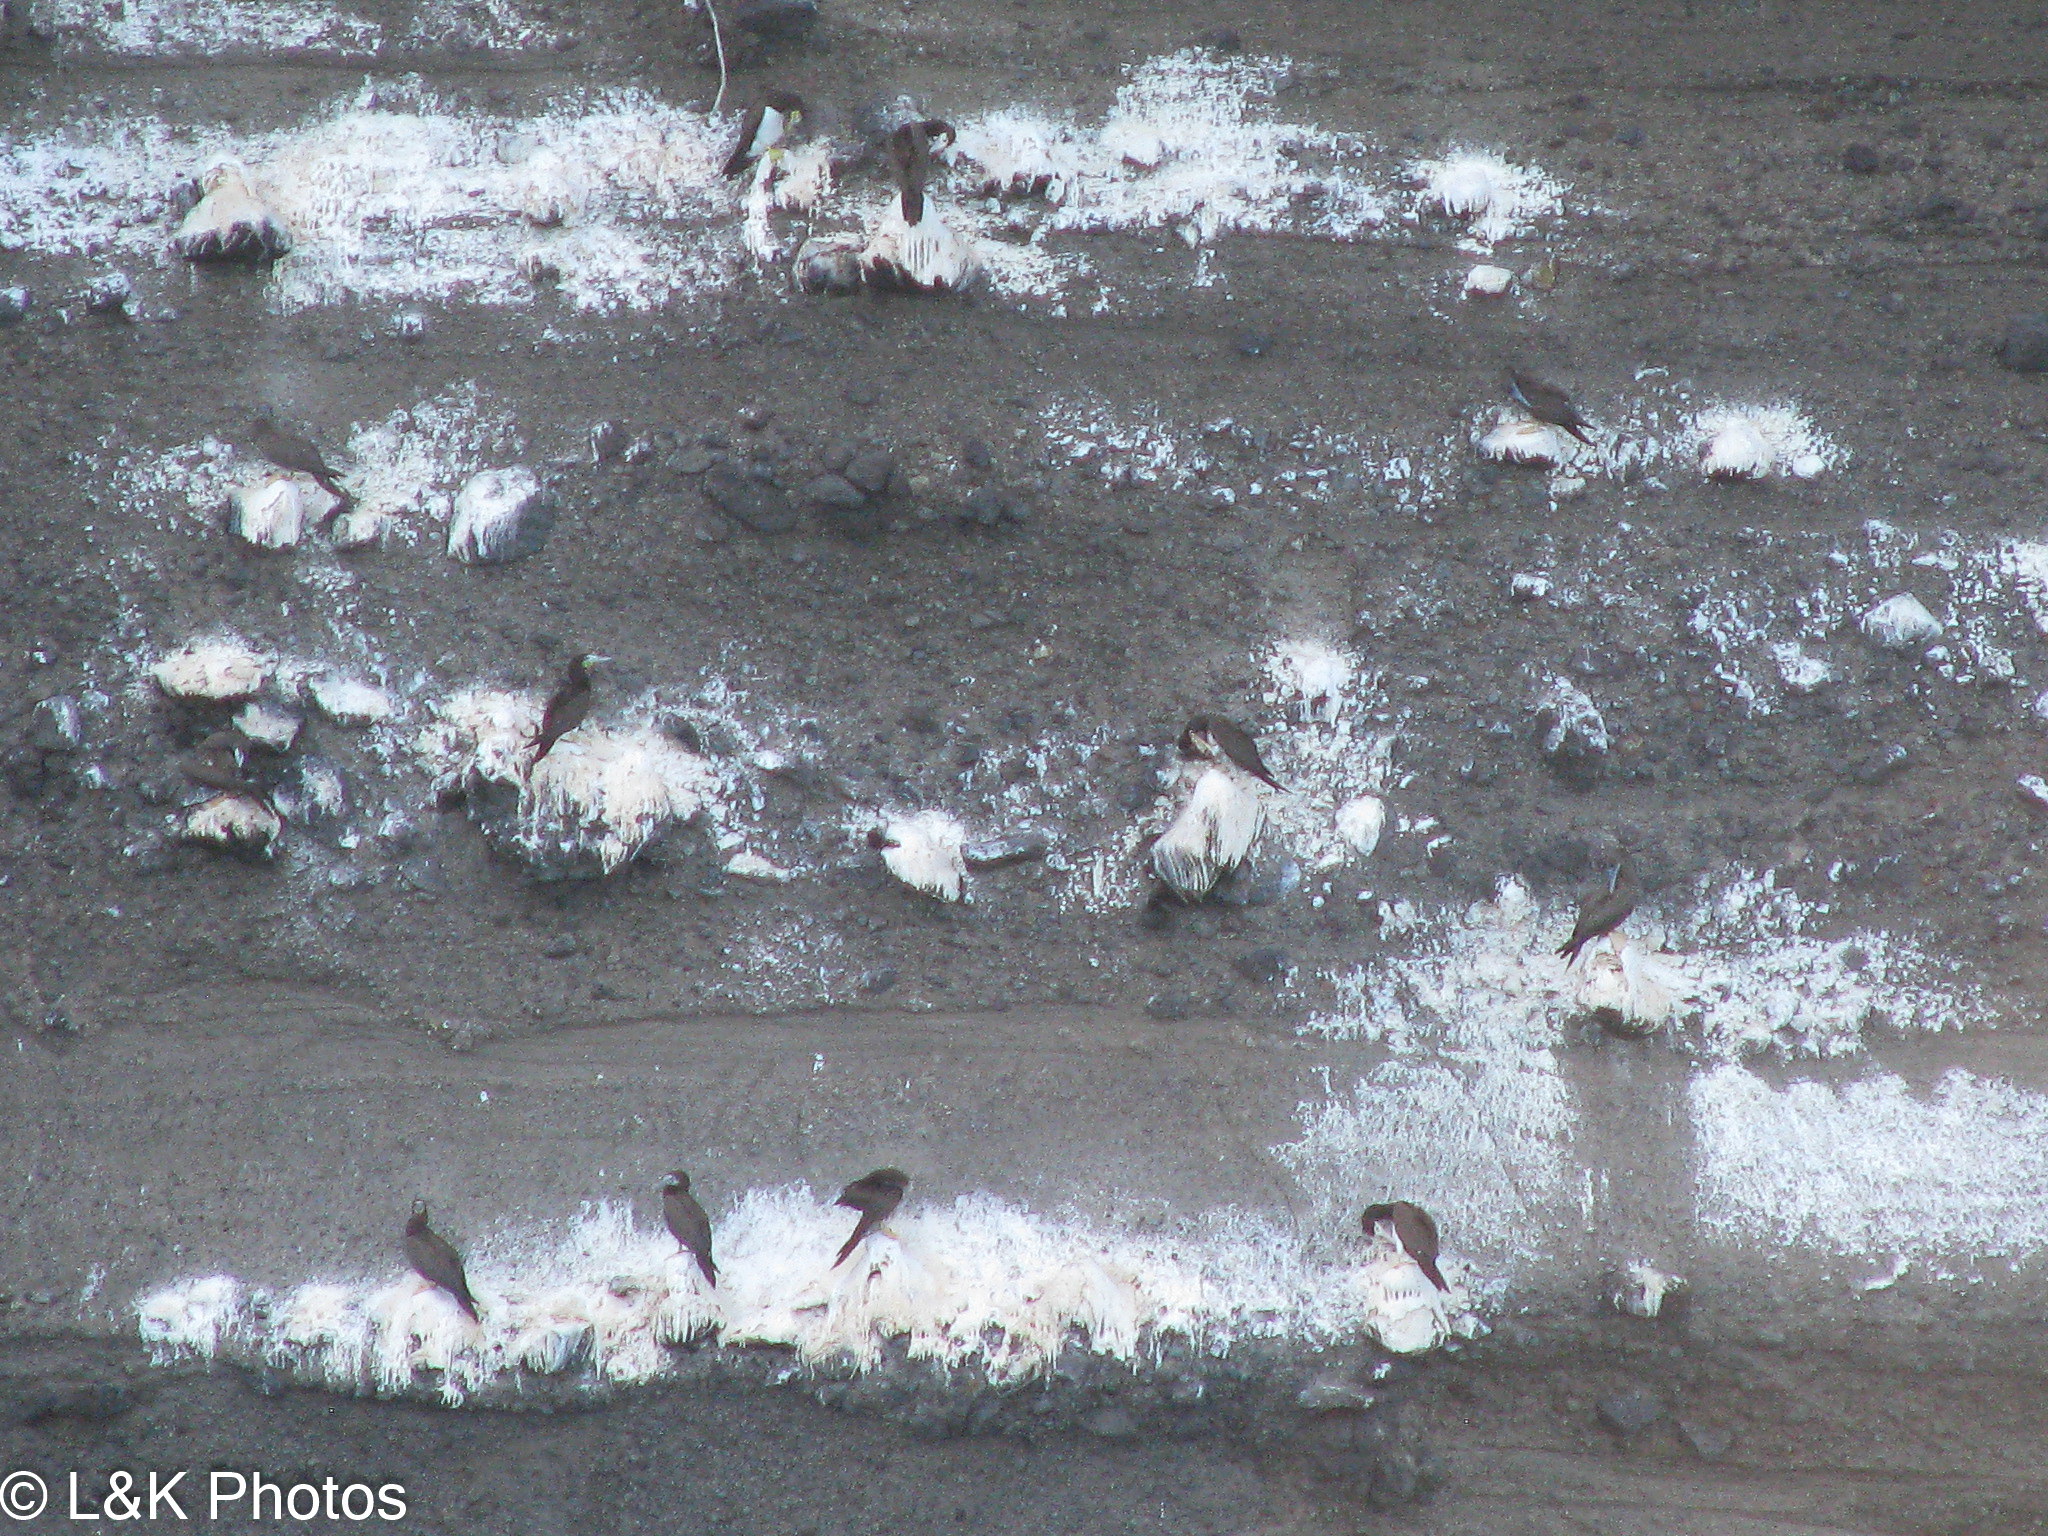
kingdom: Animalia
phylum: Chordata
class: Aves
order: Suliformes
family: Sulidae
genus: Sula
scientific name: Sula leucogaster
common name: Brown booby
